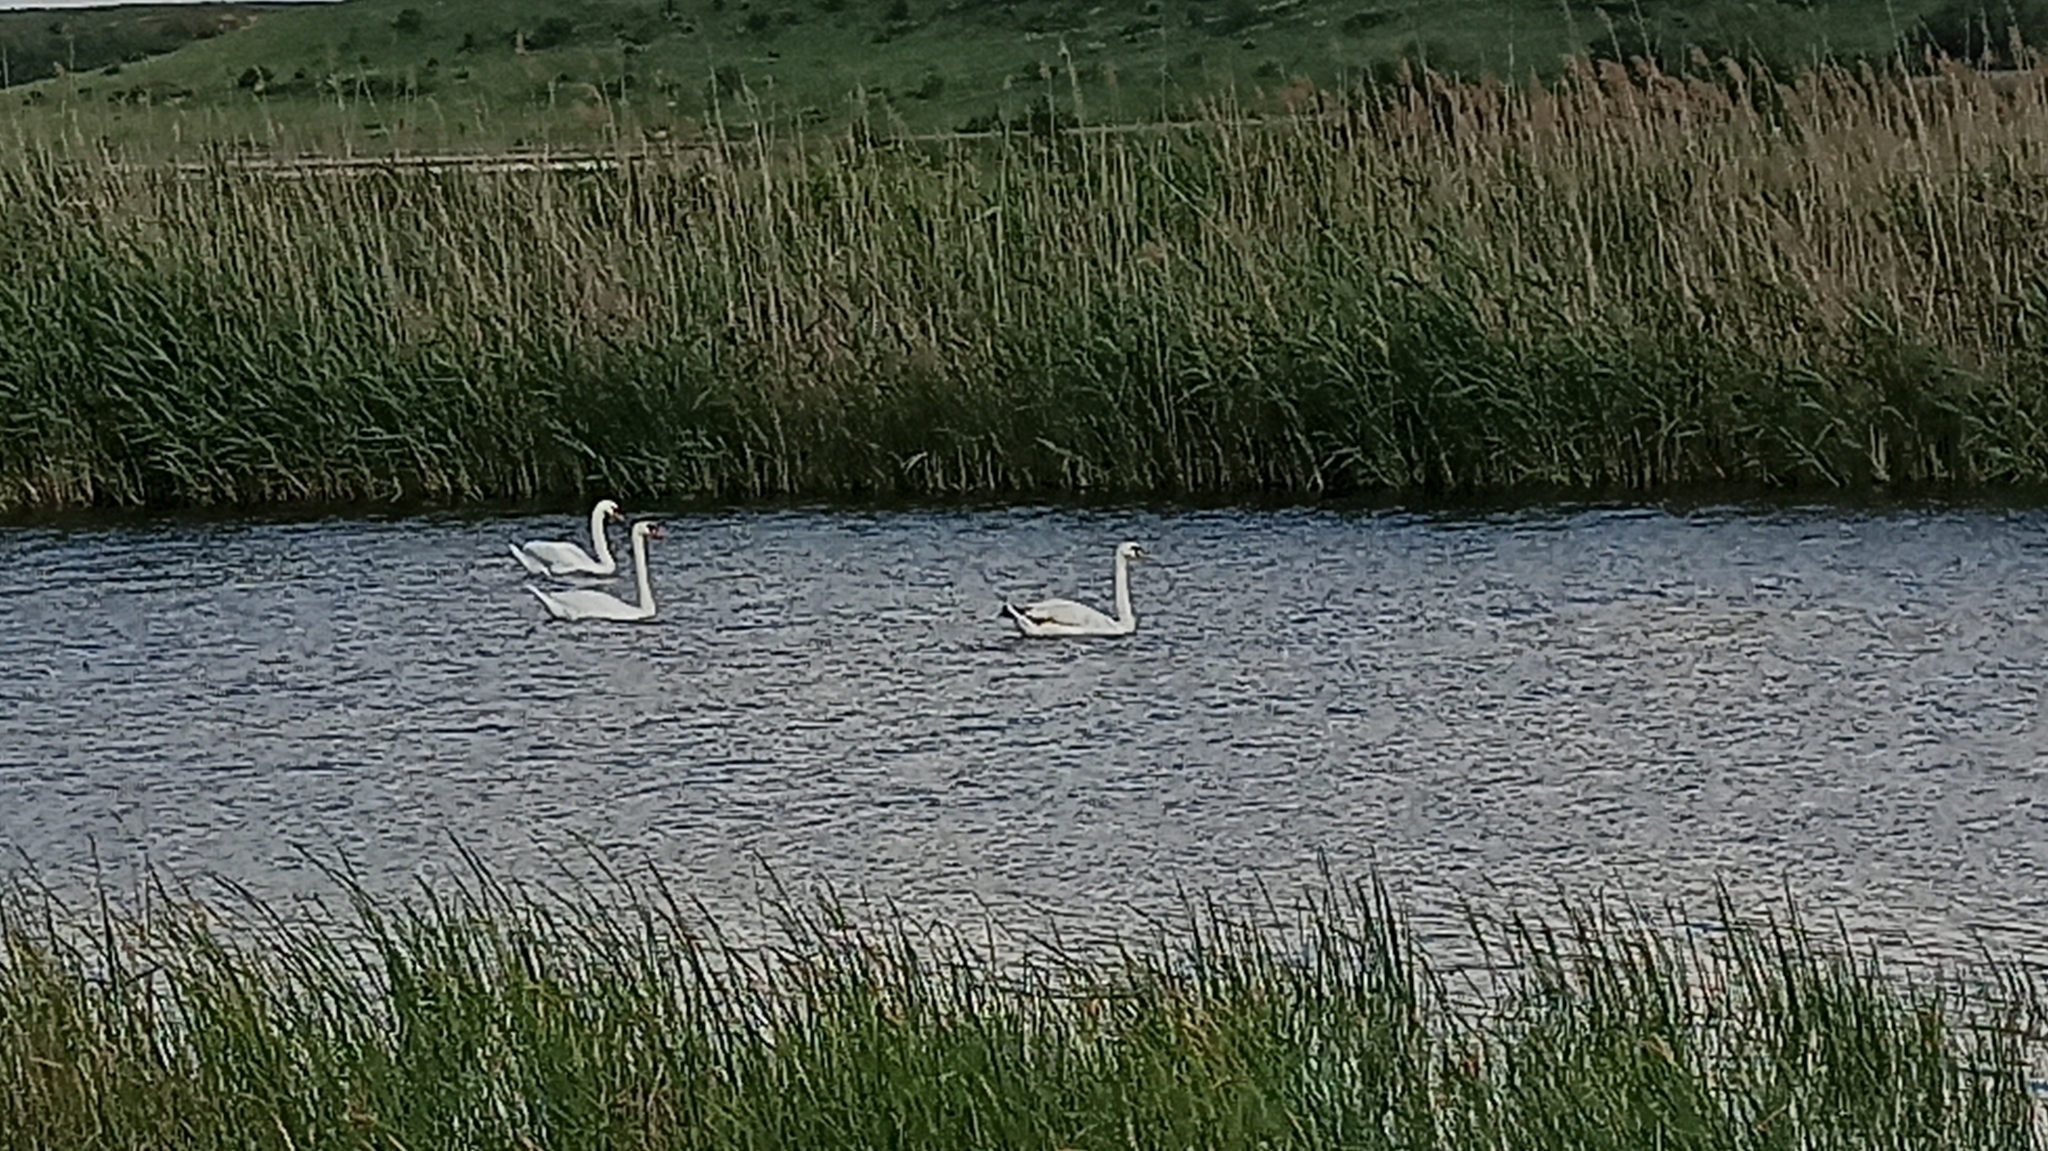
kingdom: Animalia
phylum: Chordata
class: Aves
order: Anseriformes
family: Anatidae
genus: Cygnus
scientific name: Cygnus olor
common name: Mute swan
